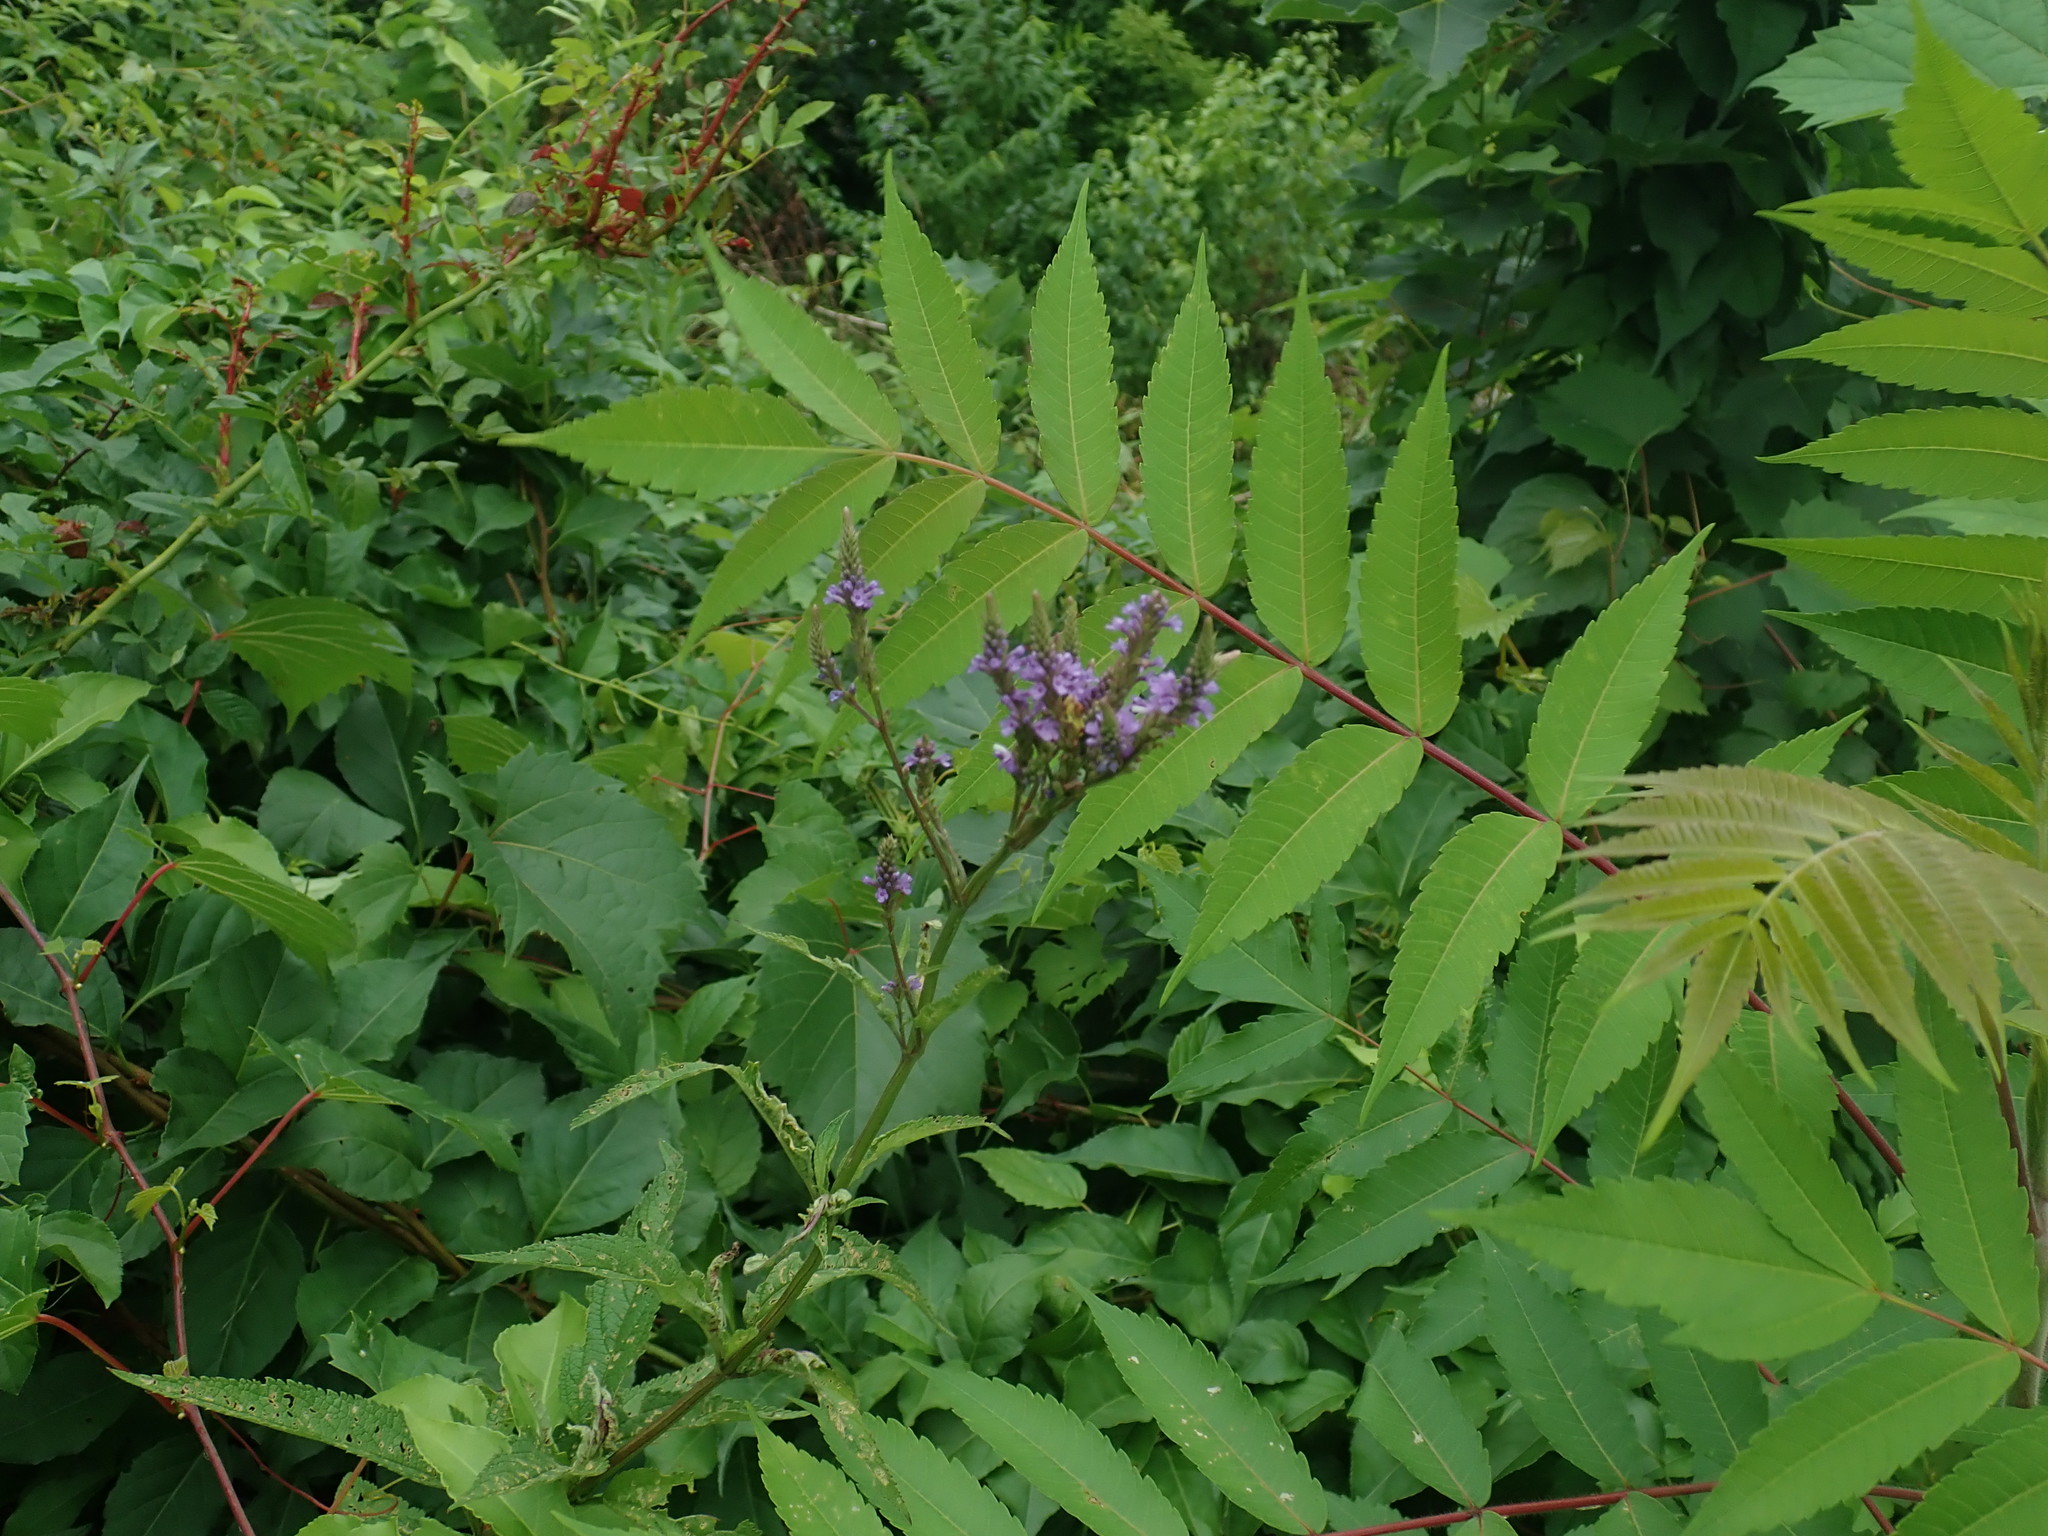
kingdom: Plantae
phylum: Tracheophyta
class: Magnoliopsida
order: Lamiales
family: Verbenaceae
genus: Verbena
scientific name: Verbena hastata
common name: American blue vervain
